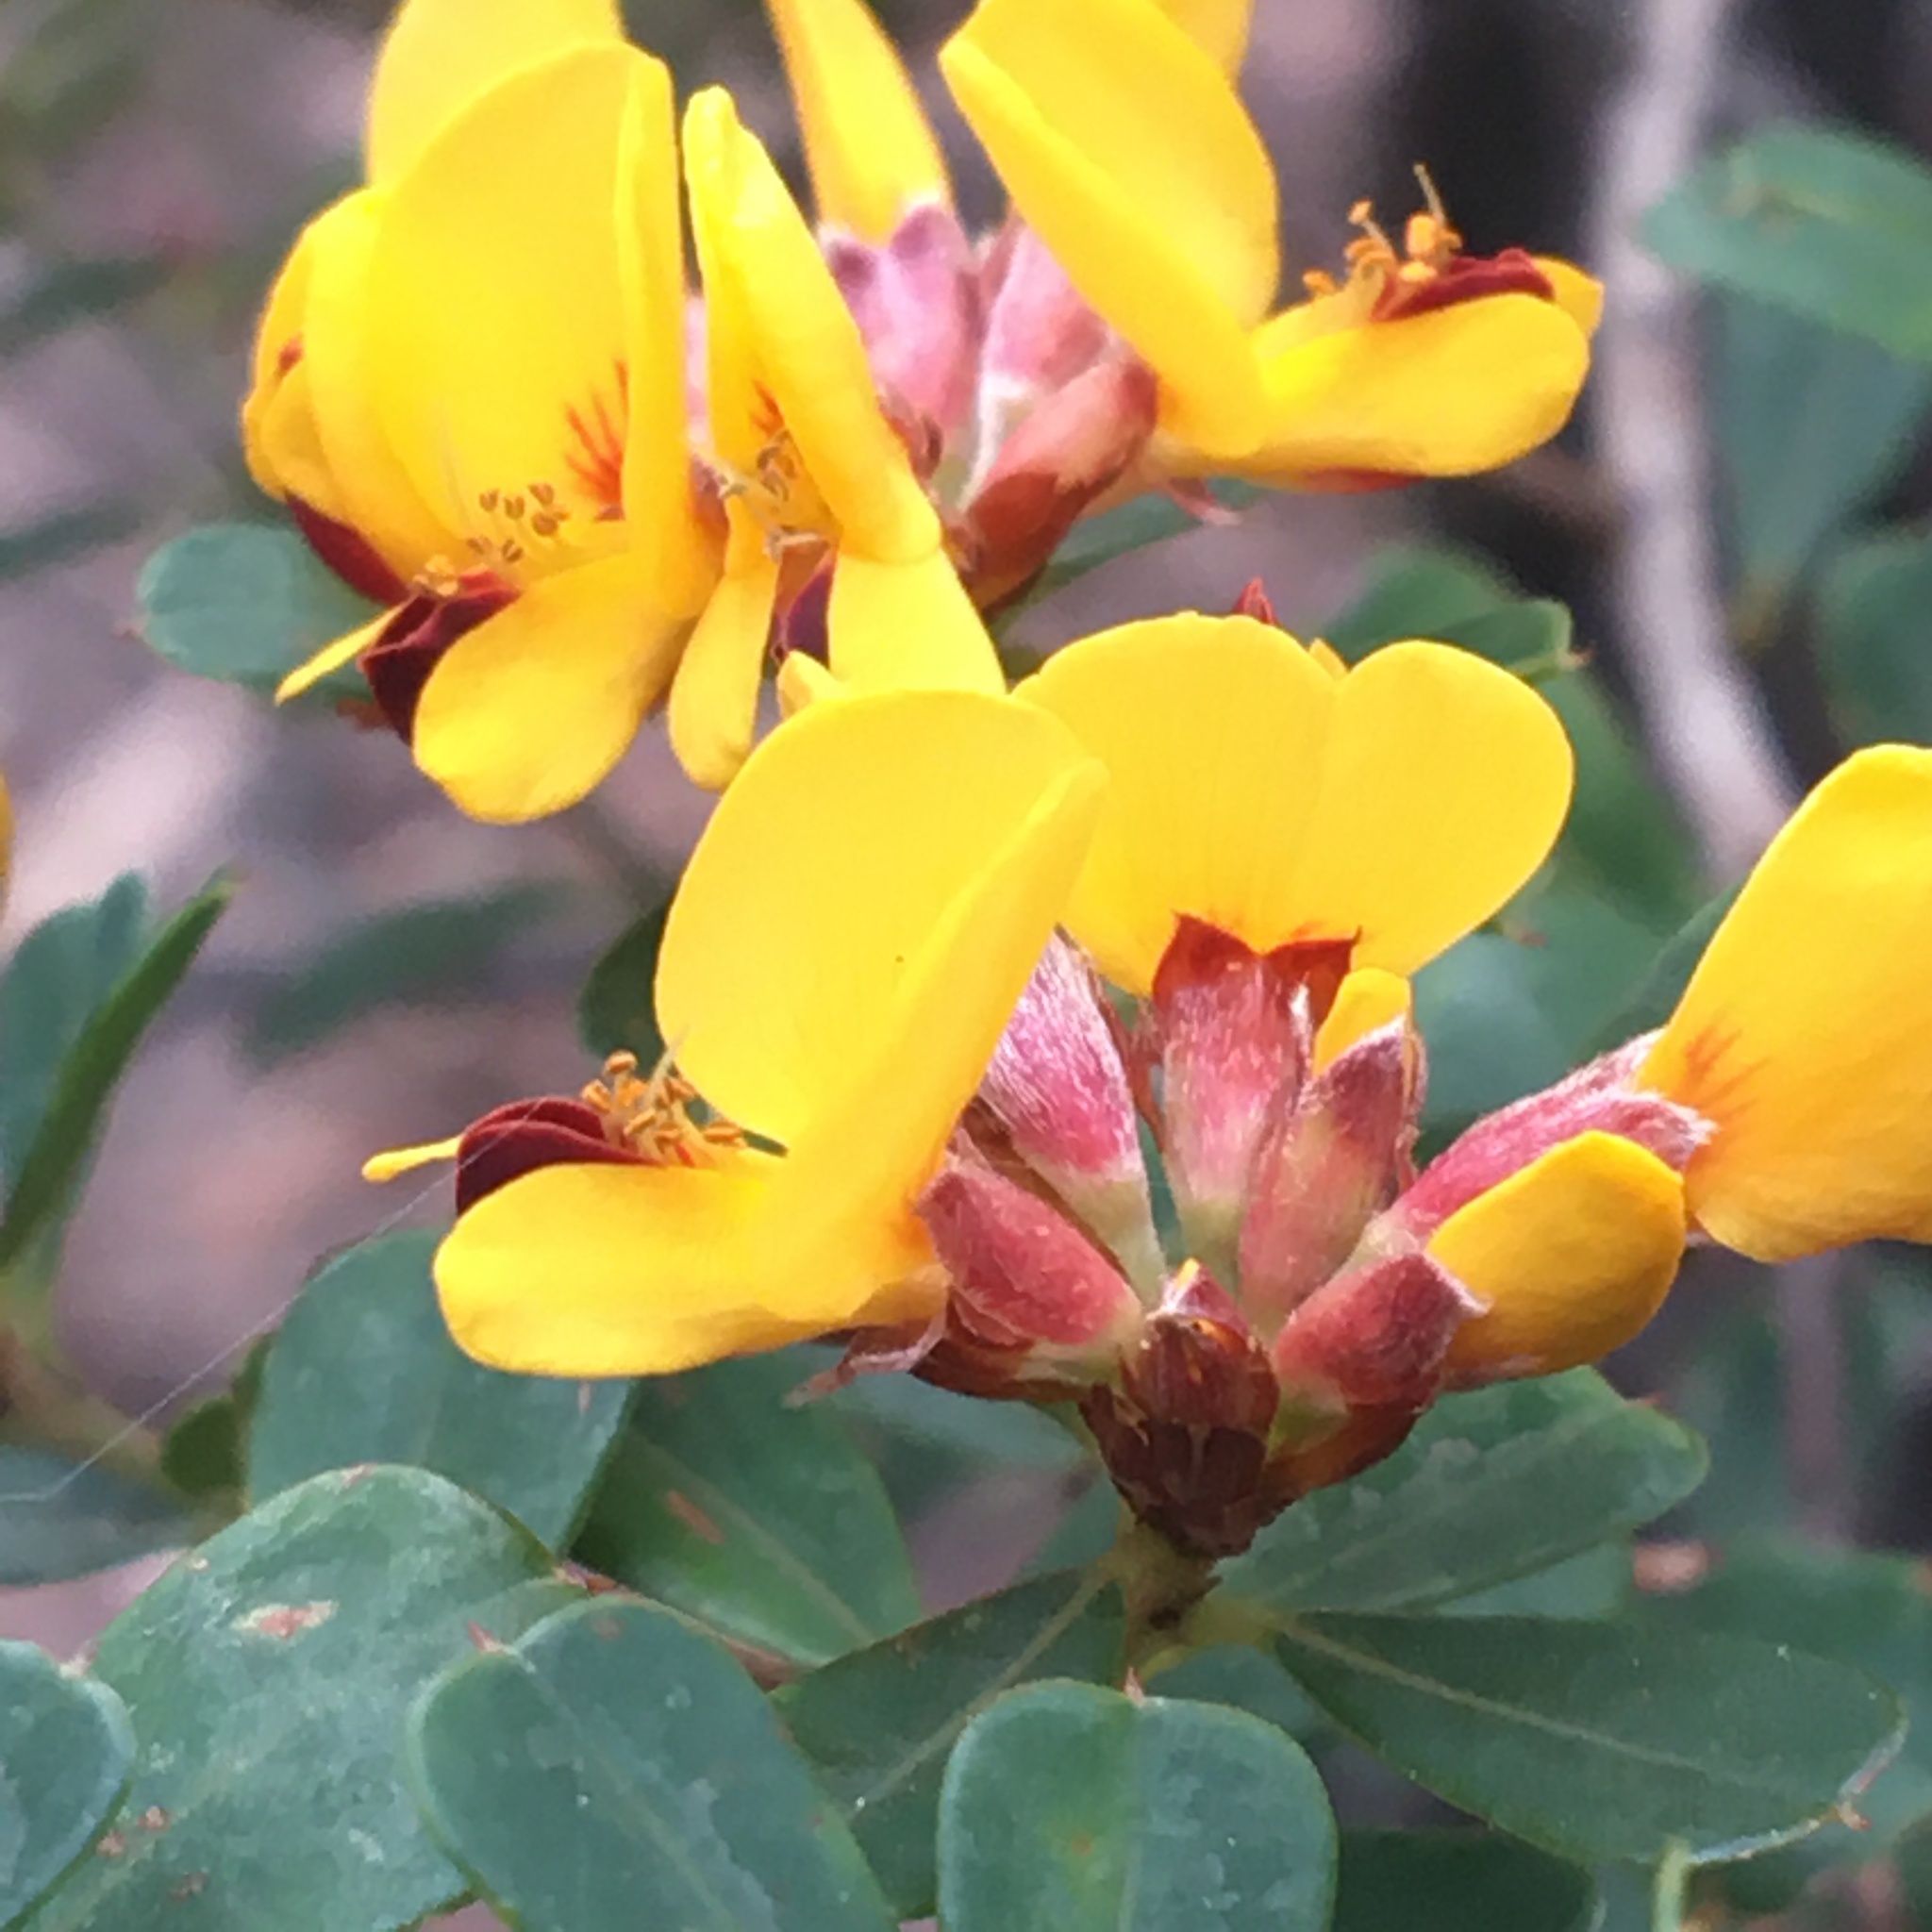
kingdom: Plantae
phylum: Tracheophyta
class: Magnoliopsida
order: Fabales
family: Fabaceae
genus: Pultenaea
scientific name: Pultenaea daphnoides
